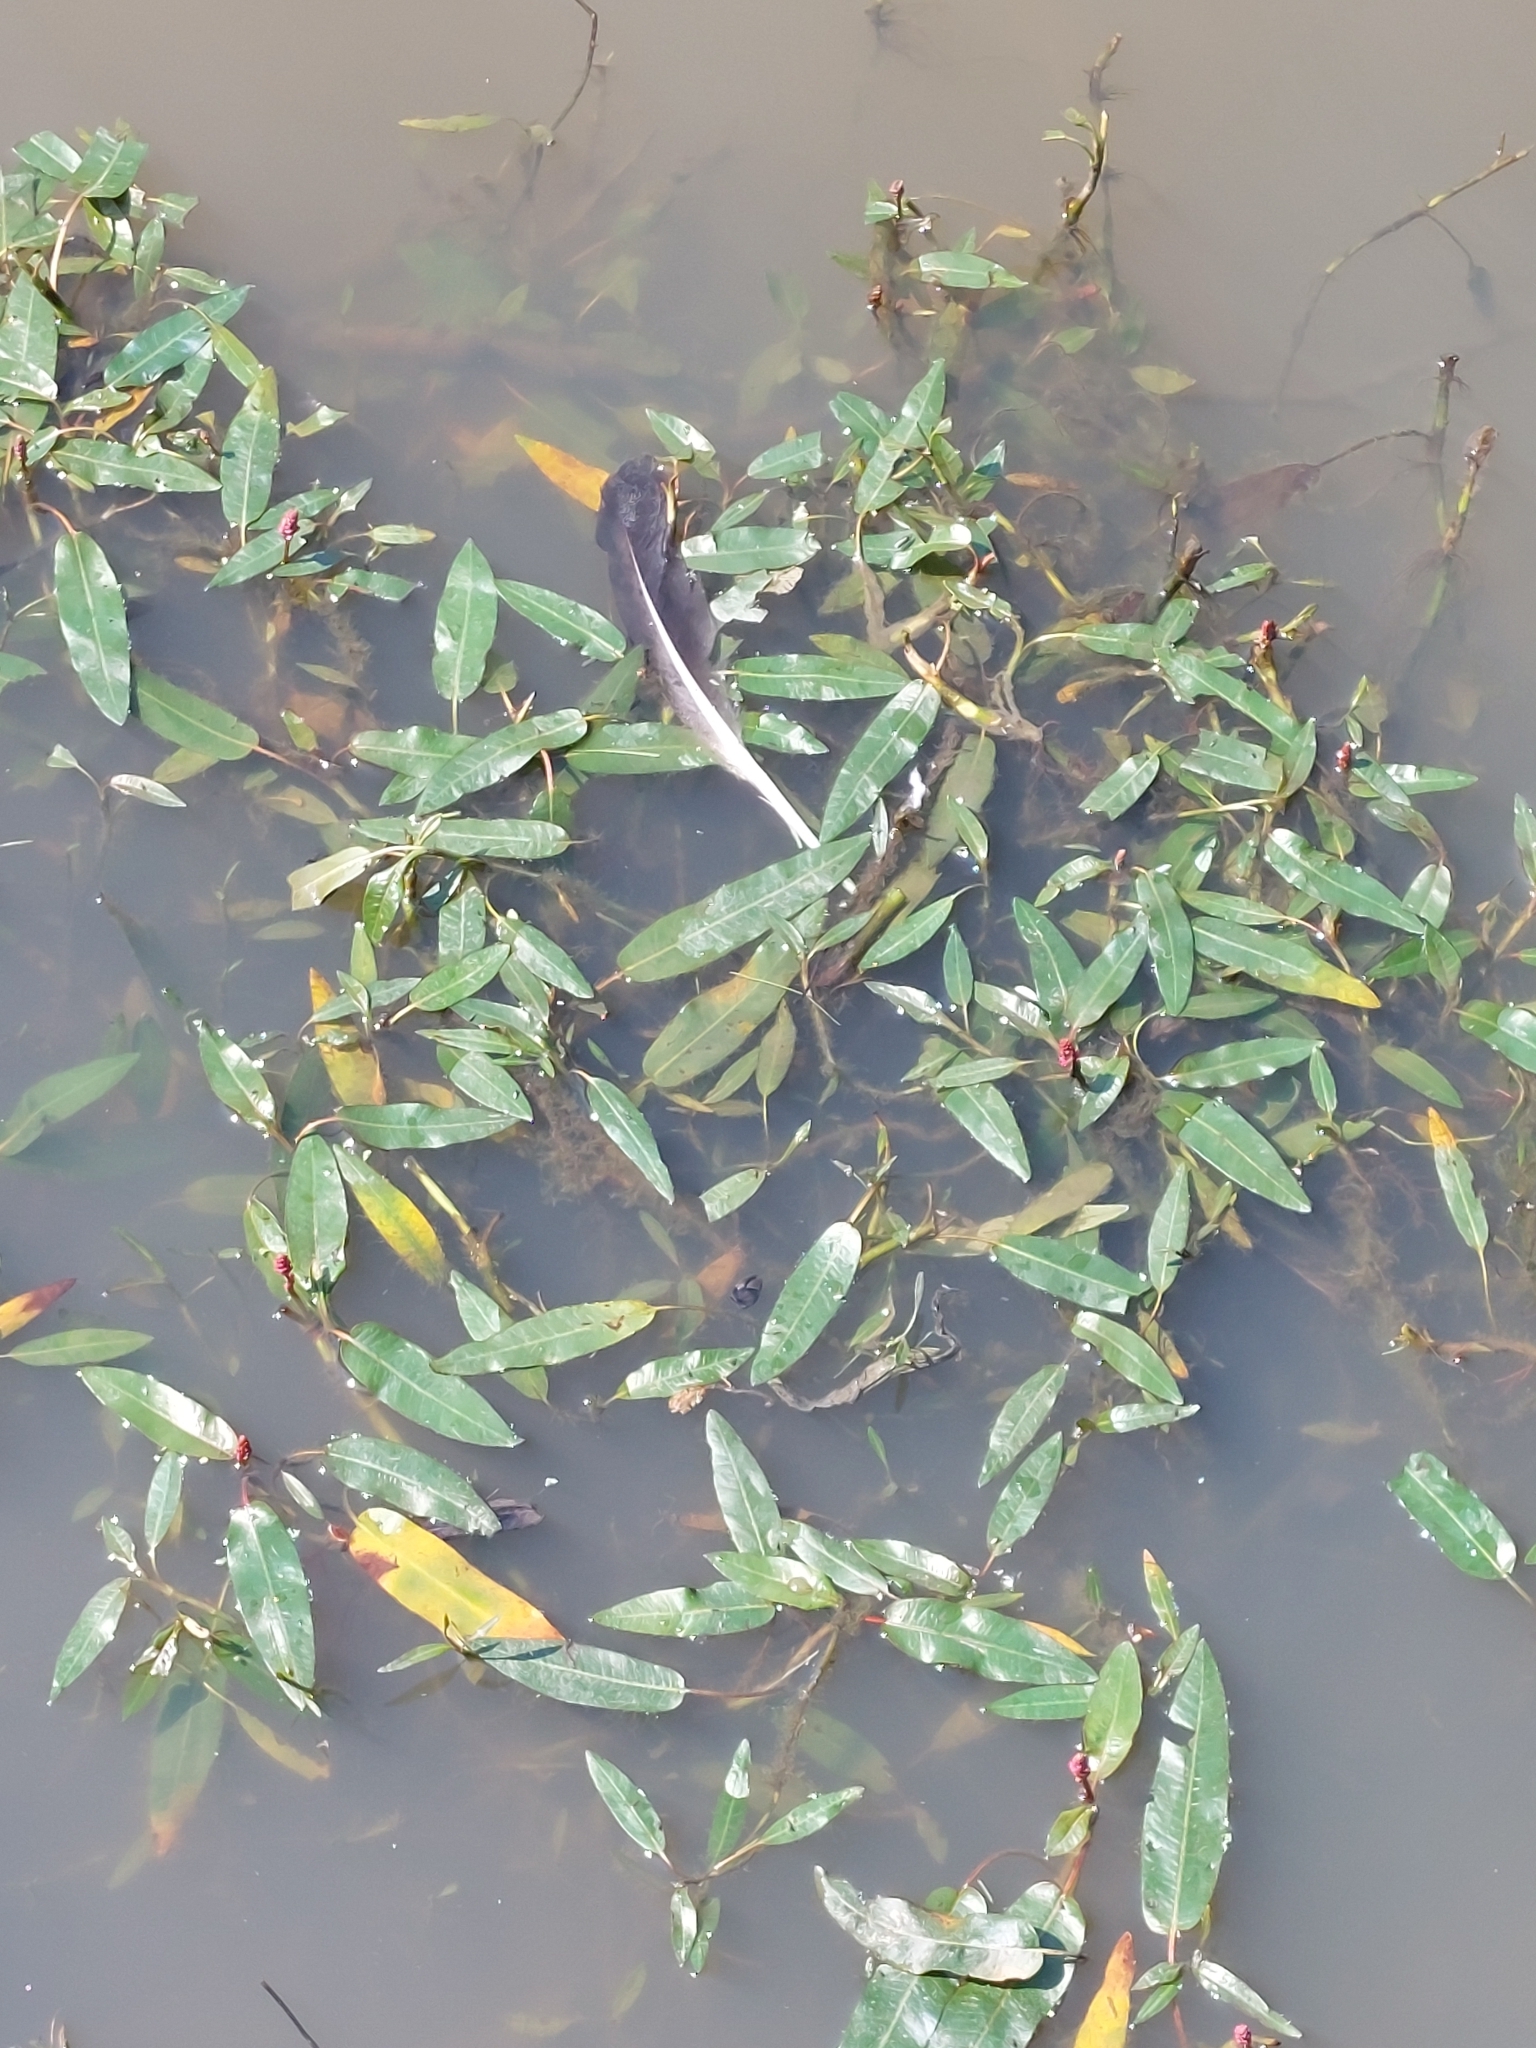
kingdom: Plantae
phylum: Tracheophyta
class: Magnoliopsida
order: Caryophyllales
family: Polygonaceae
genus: Persicaria
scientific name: Persicaria amphibia
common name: Amphibious bistort
